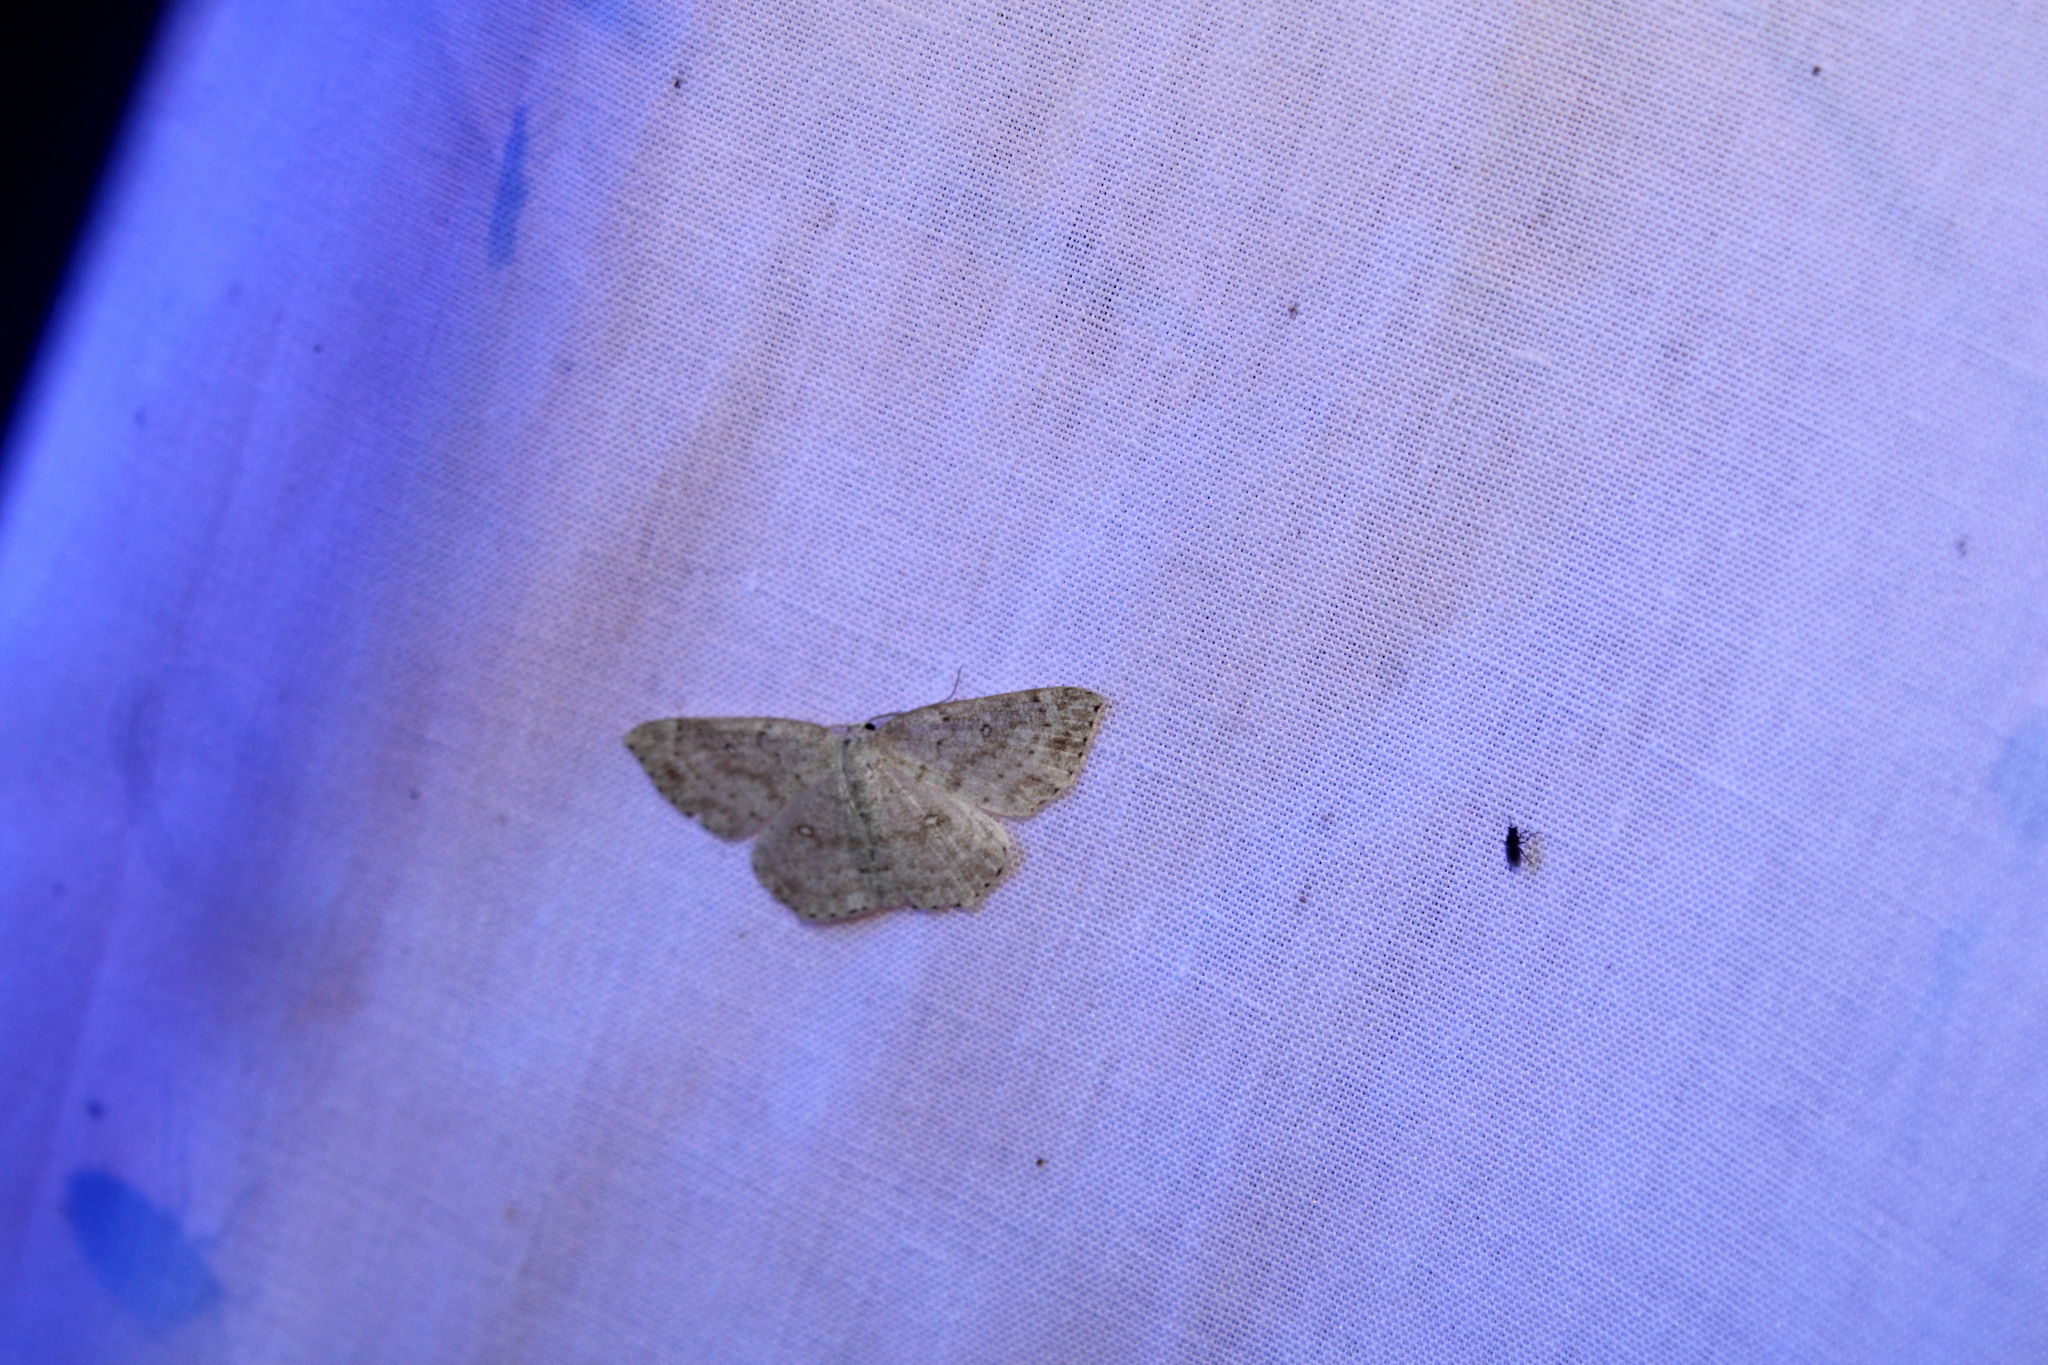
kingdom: Animalia
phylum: Arthropoda
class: Insecta
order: Lepidoptera
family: Geometridae
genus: Cyclophora
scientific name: Cyclophora pendulinaria
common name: Sweet fern geometer
